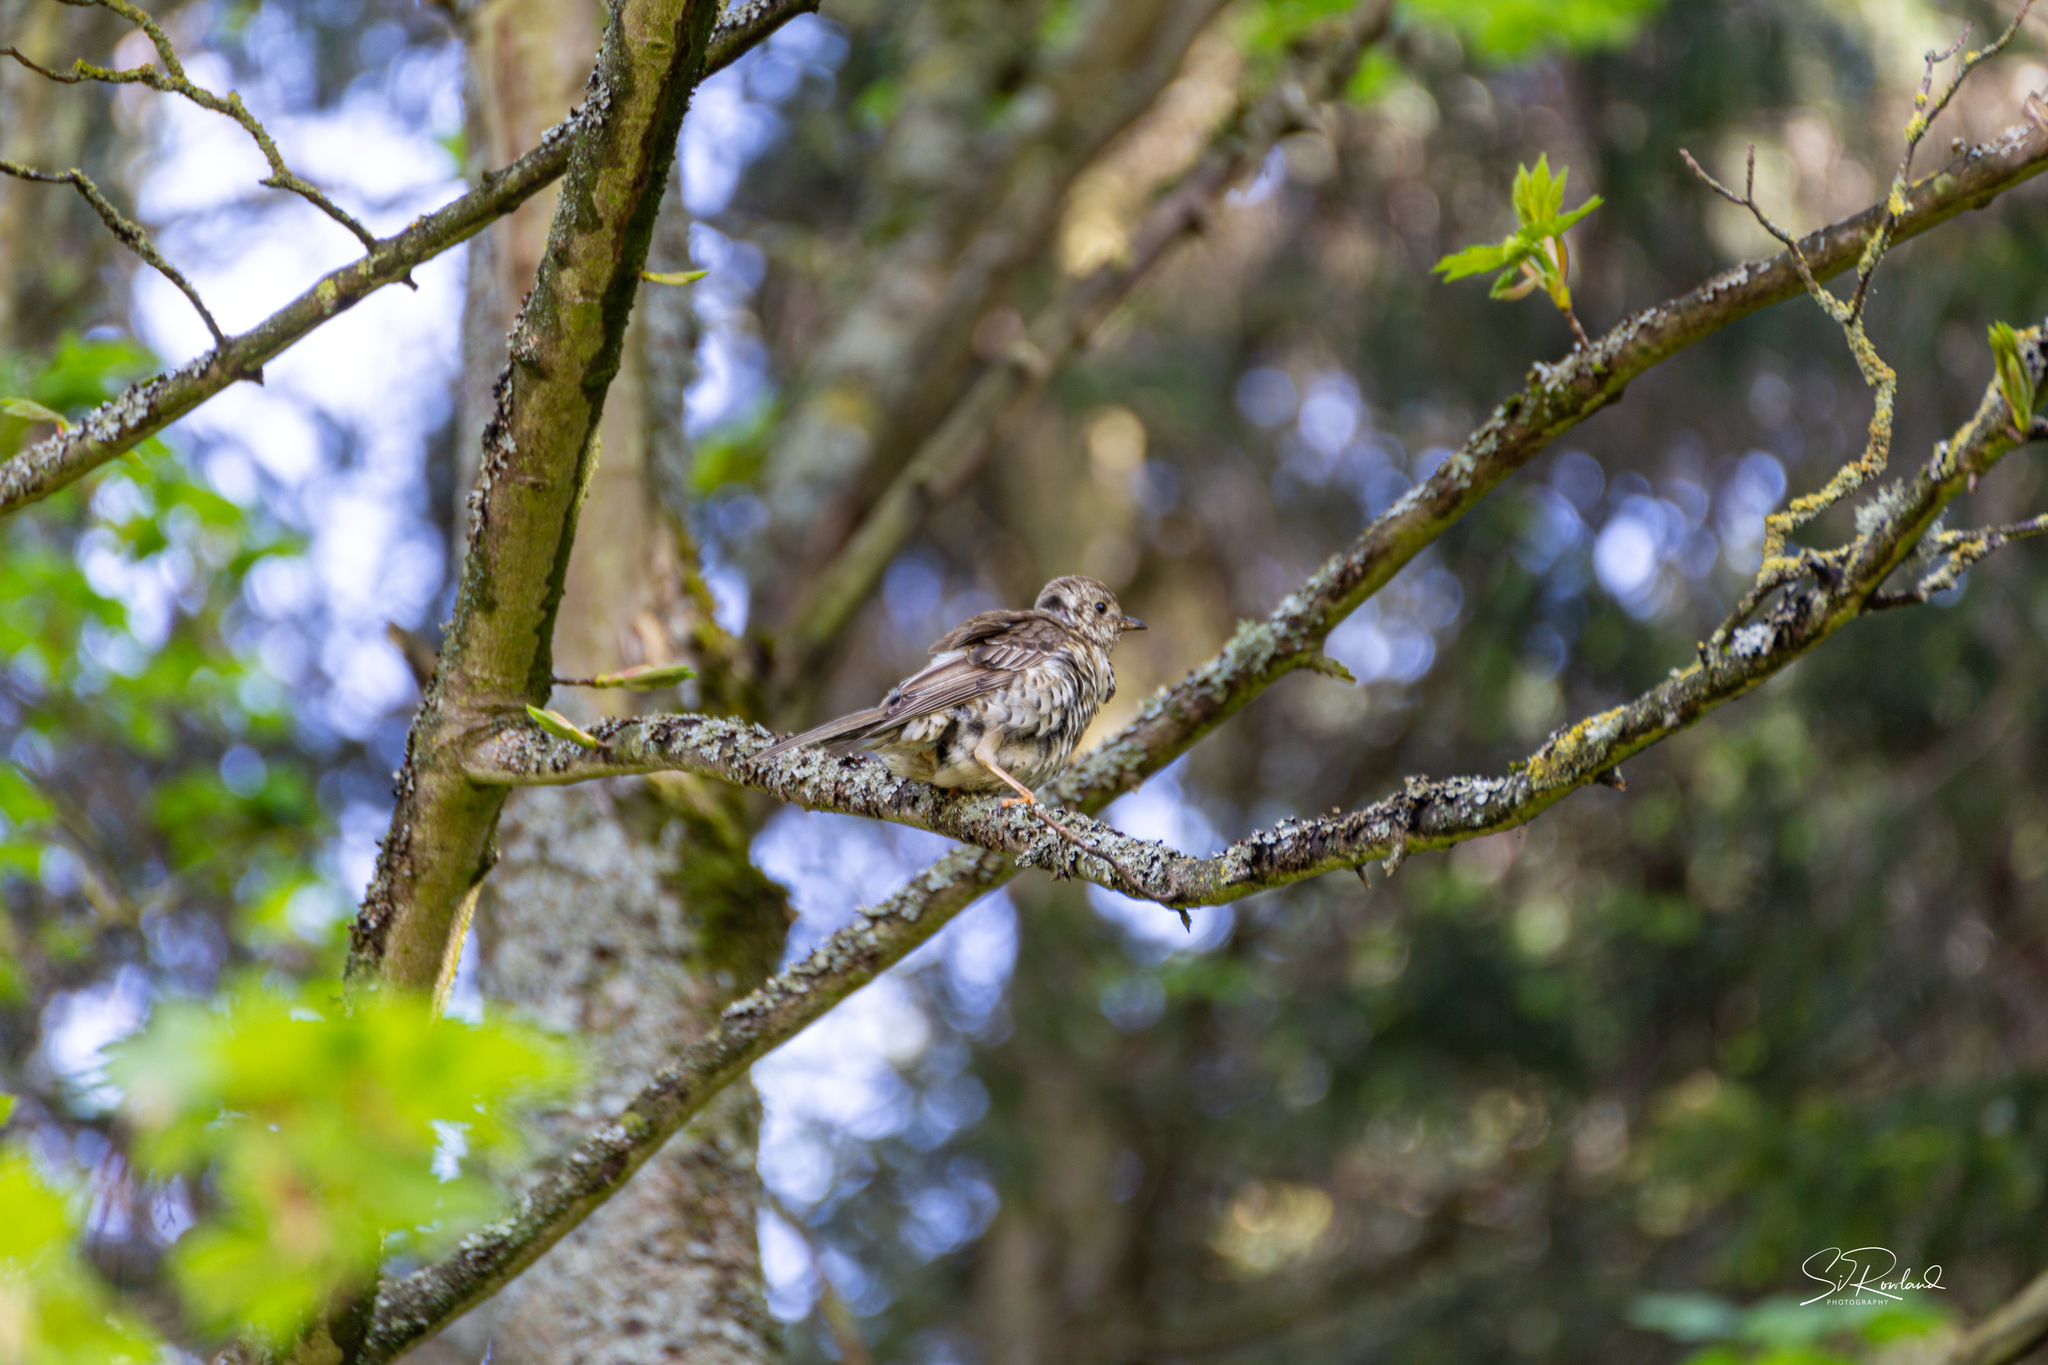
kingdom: Animalia
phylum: Chordata
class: Aves
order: Passeriformes
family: Turdidae
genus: Turdus
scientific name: Turdus viscivorus
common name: Mistle thrush
